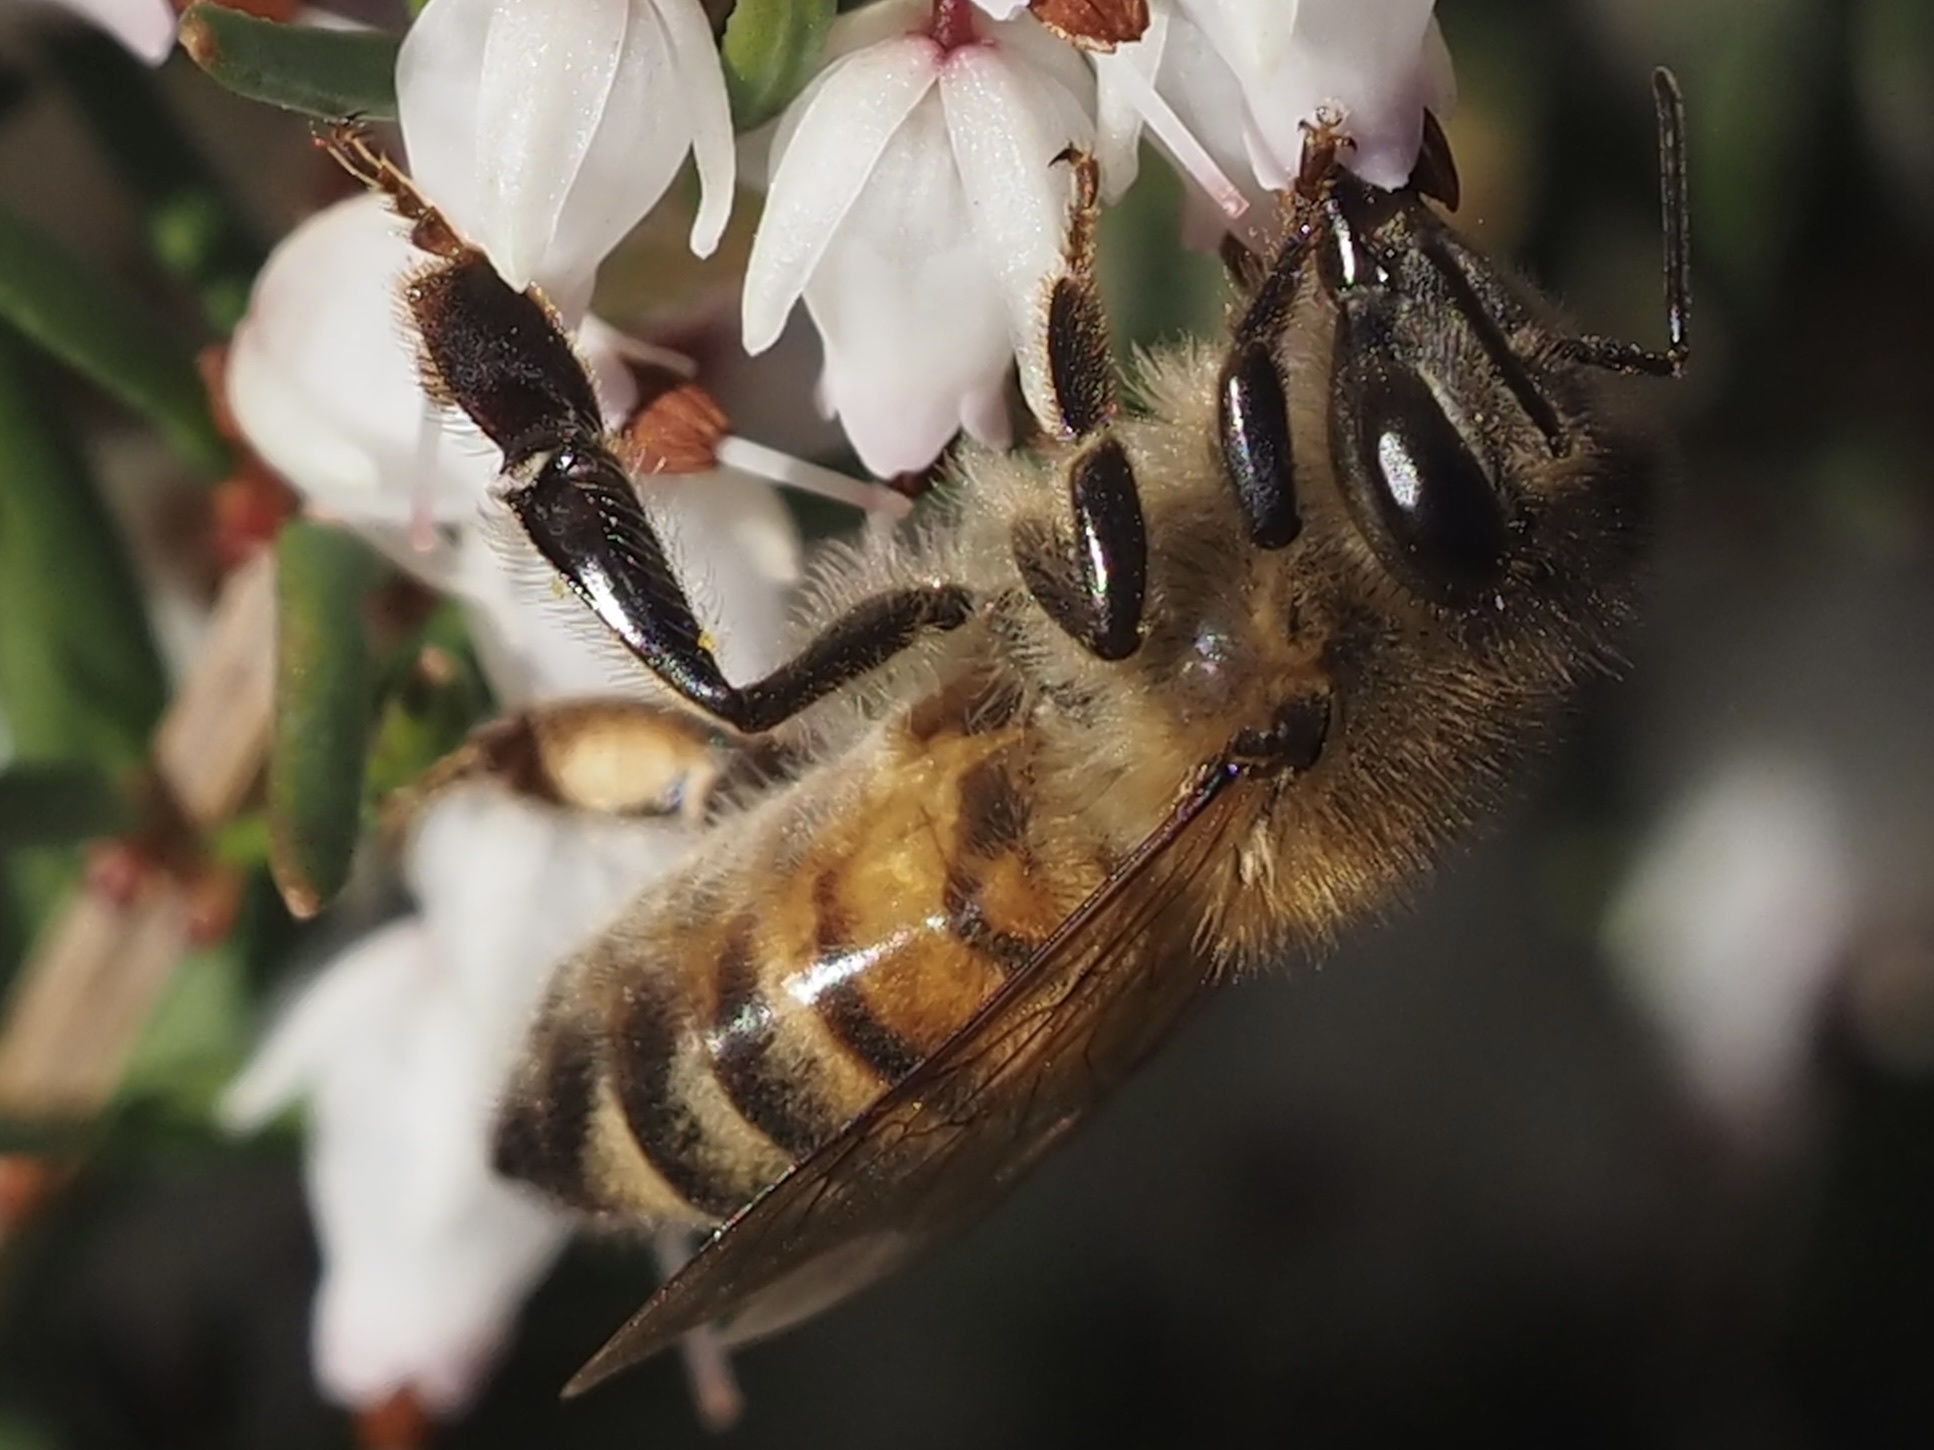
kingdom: Animalia
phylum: Arthropoda
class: Insecta
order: Hymenoptera
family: Apidae
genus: Apis
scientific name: Apis mellifera
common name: Honey bee
